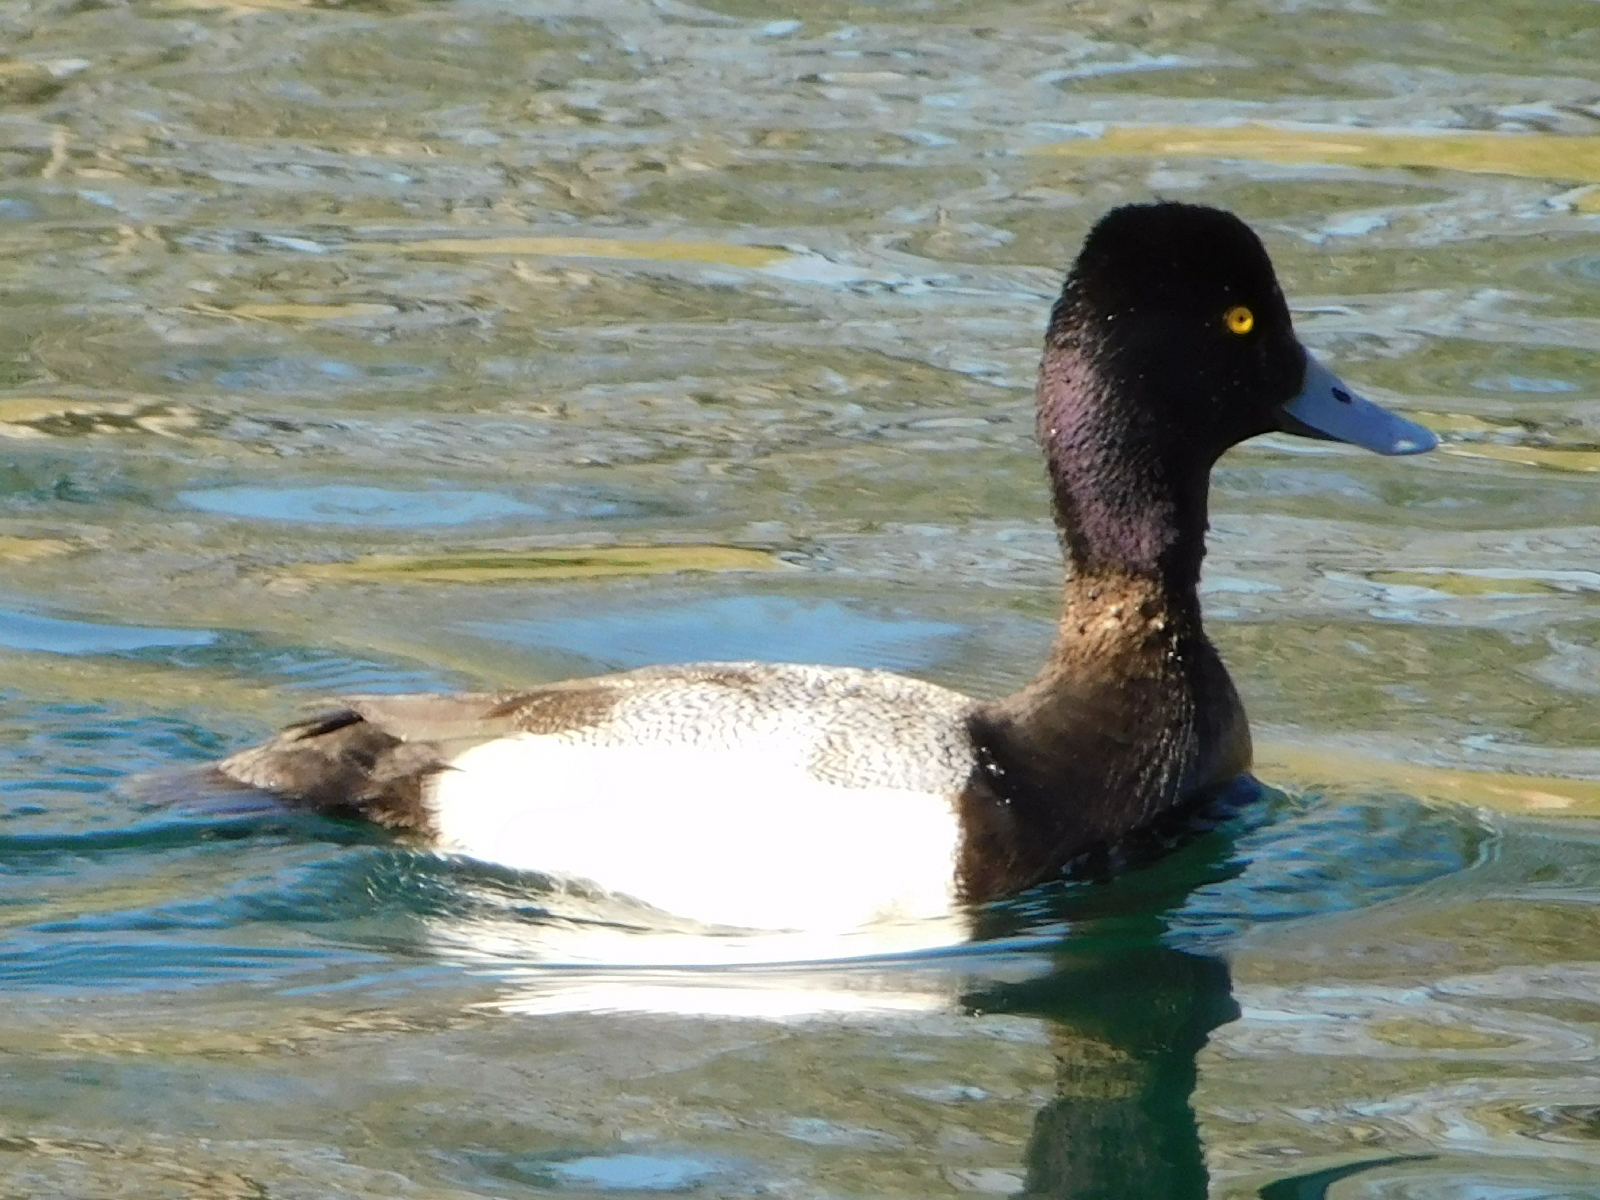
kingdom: Animalia
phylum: Chordata
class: Aves
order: Anseriformes
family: Anatidae
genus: Aythya
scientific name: Aythya affinis
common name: Lesser scaup
